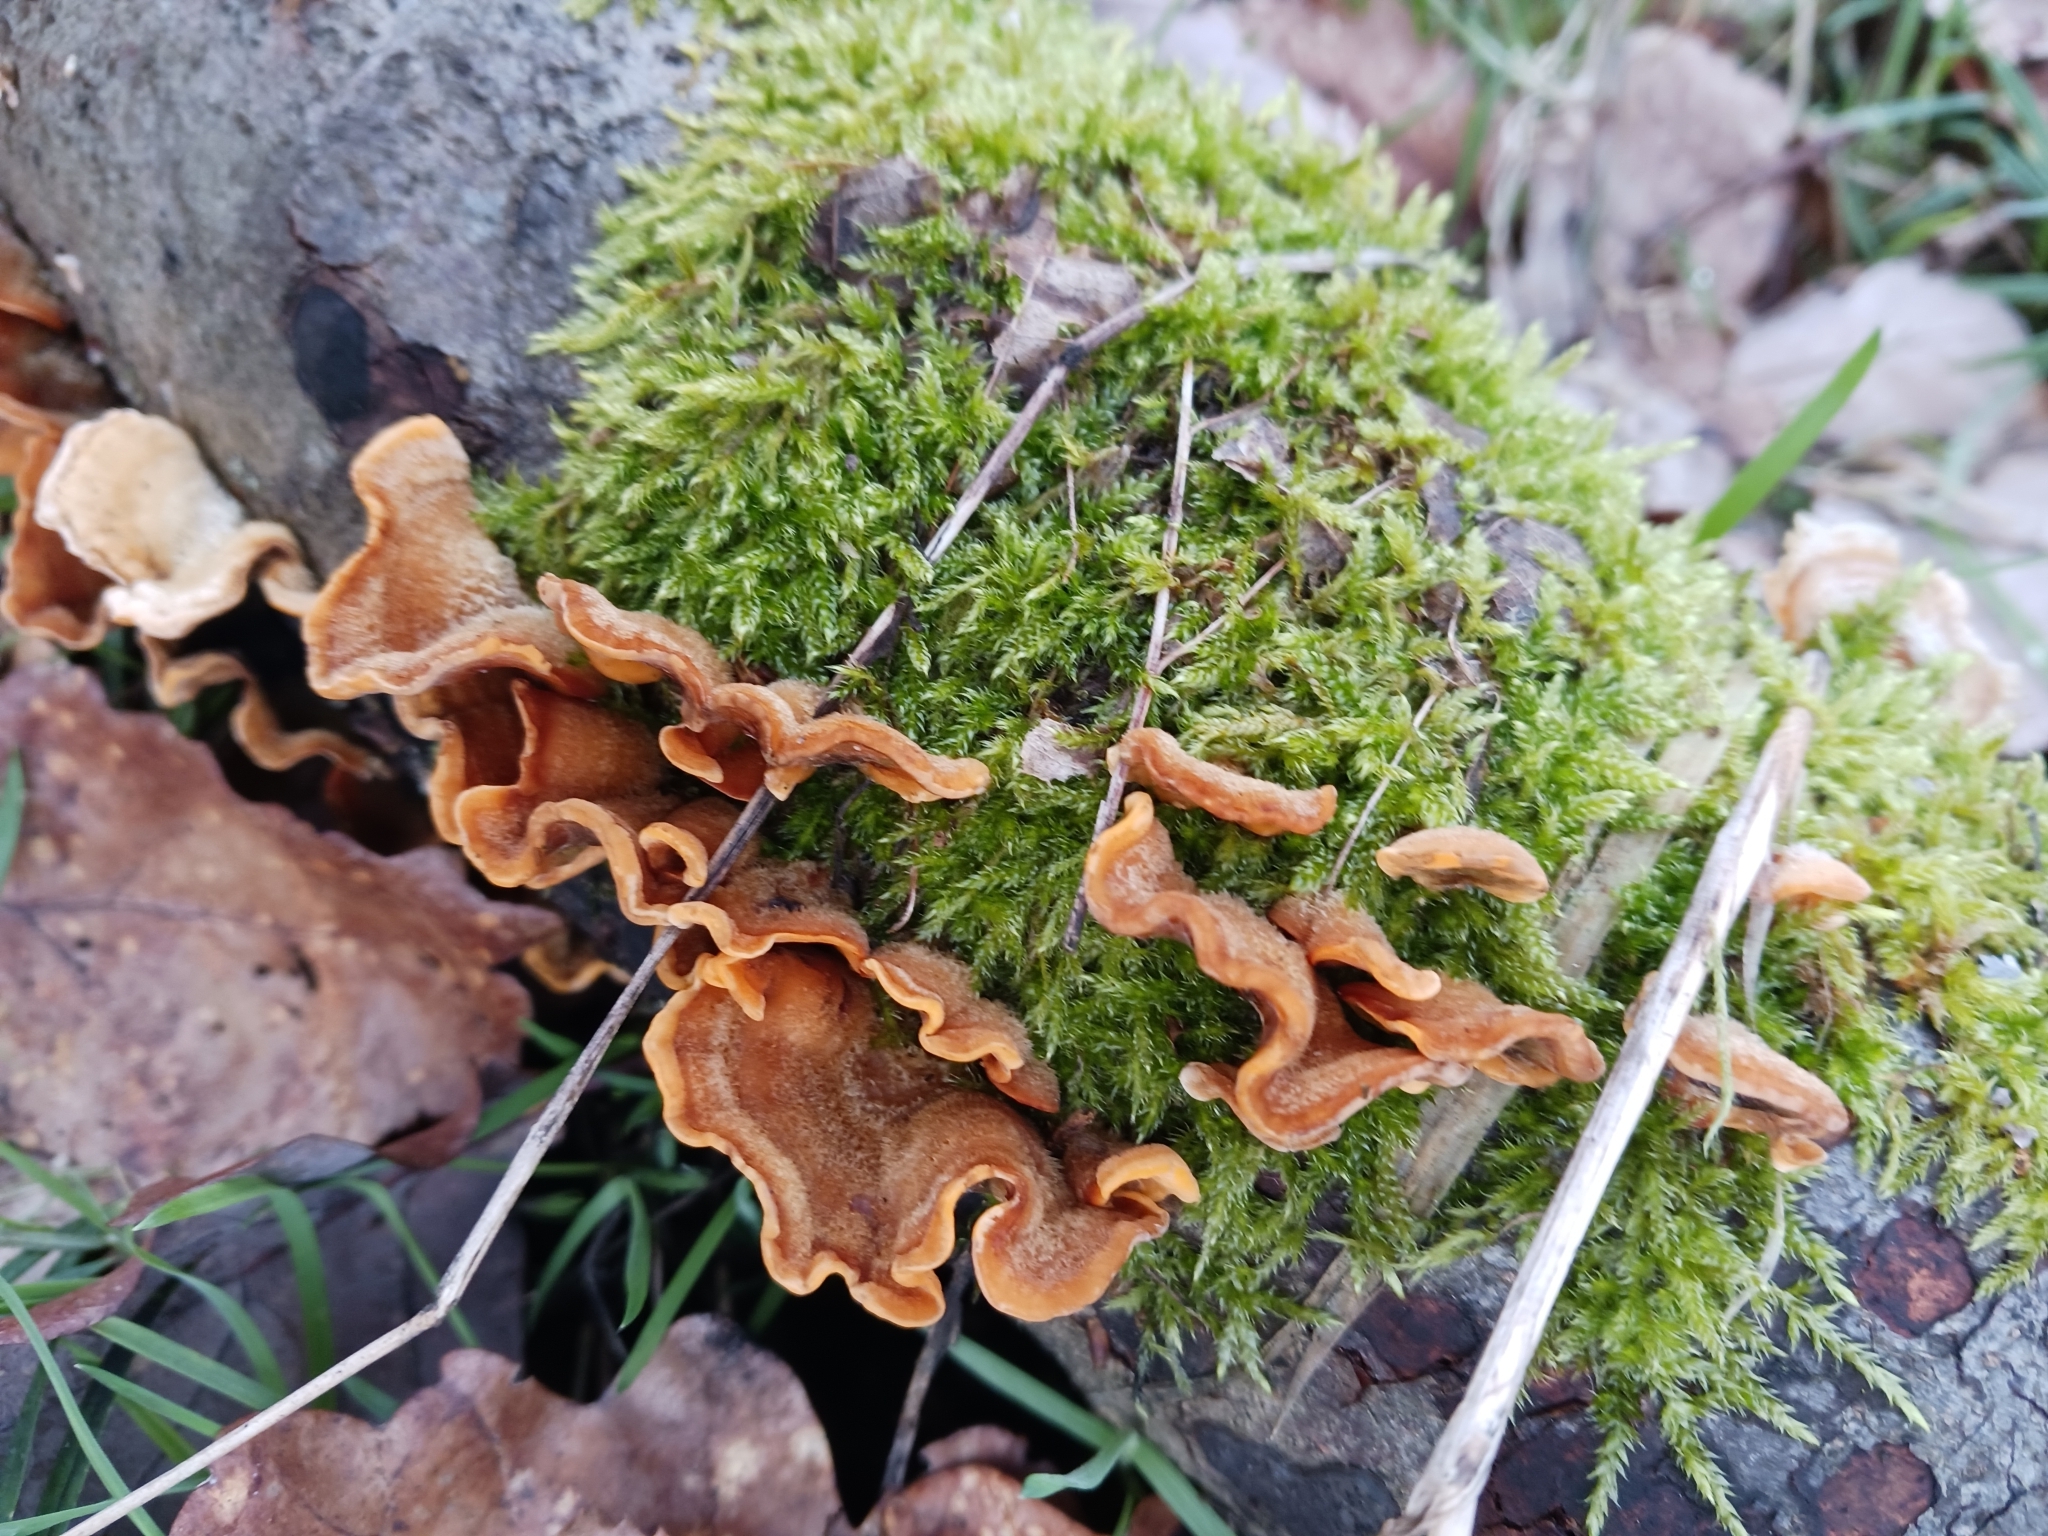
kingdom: Fungi
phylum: Basidiomycota
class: Agaricomycetes
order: Russulales
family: Stereaceae
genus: Stereum
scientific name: Stereum hirsutum
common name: Hairy curtain crust
